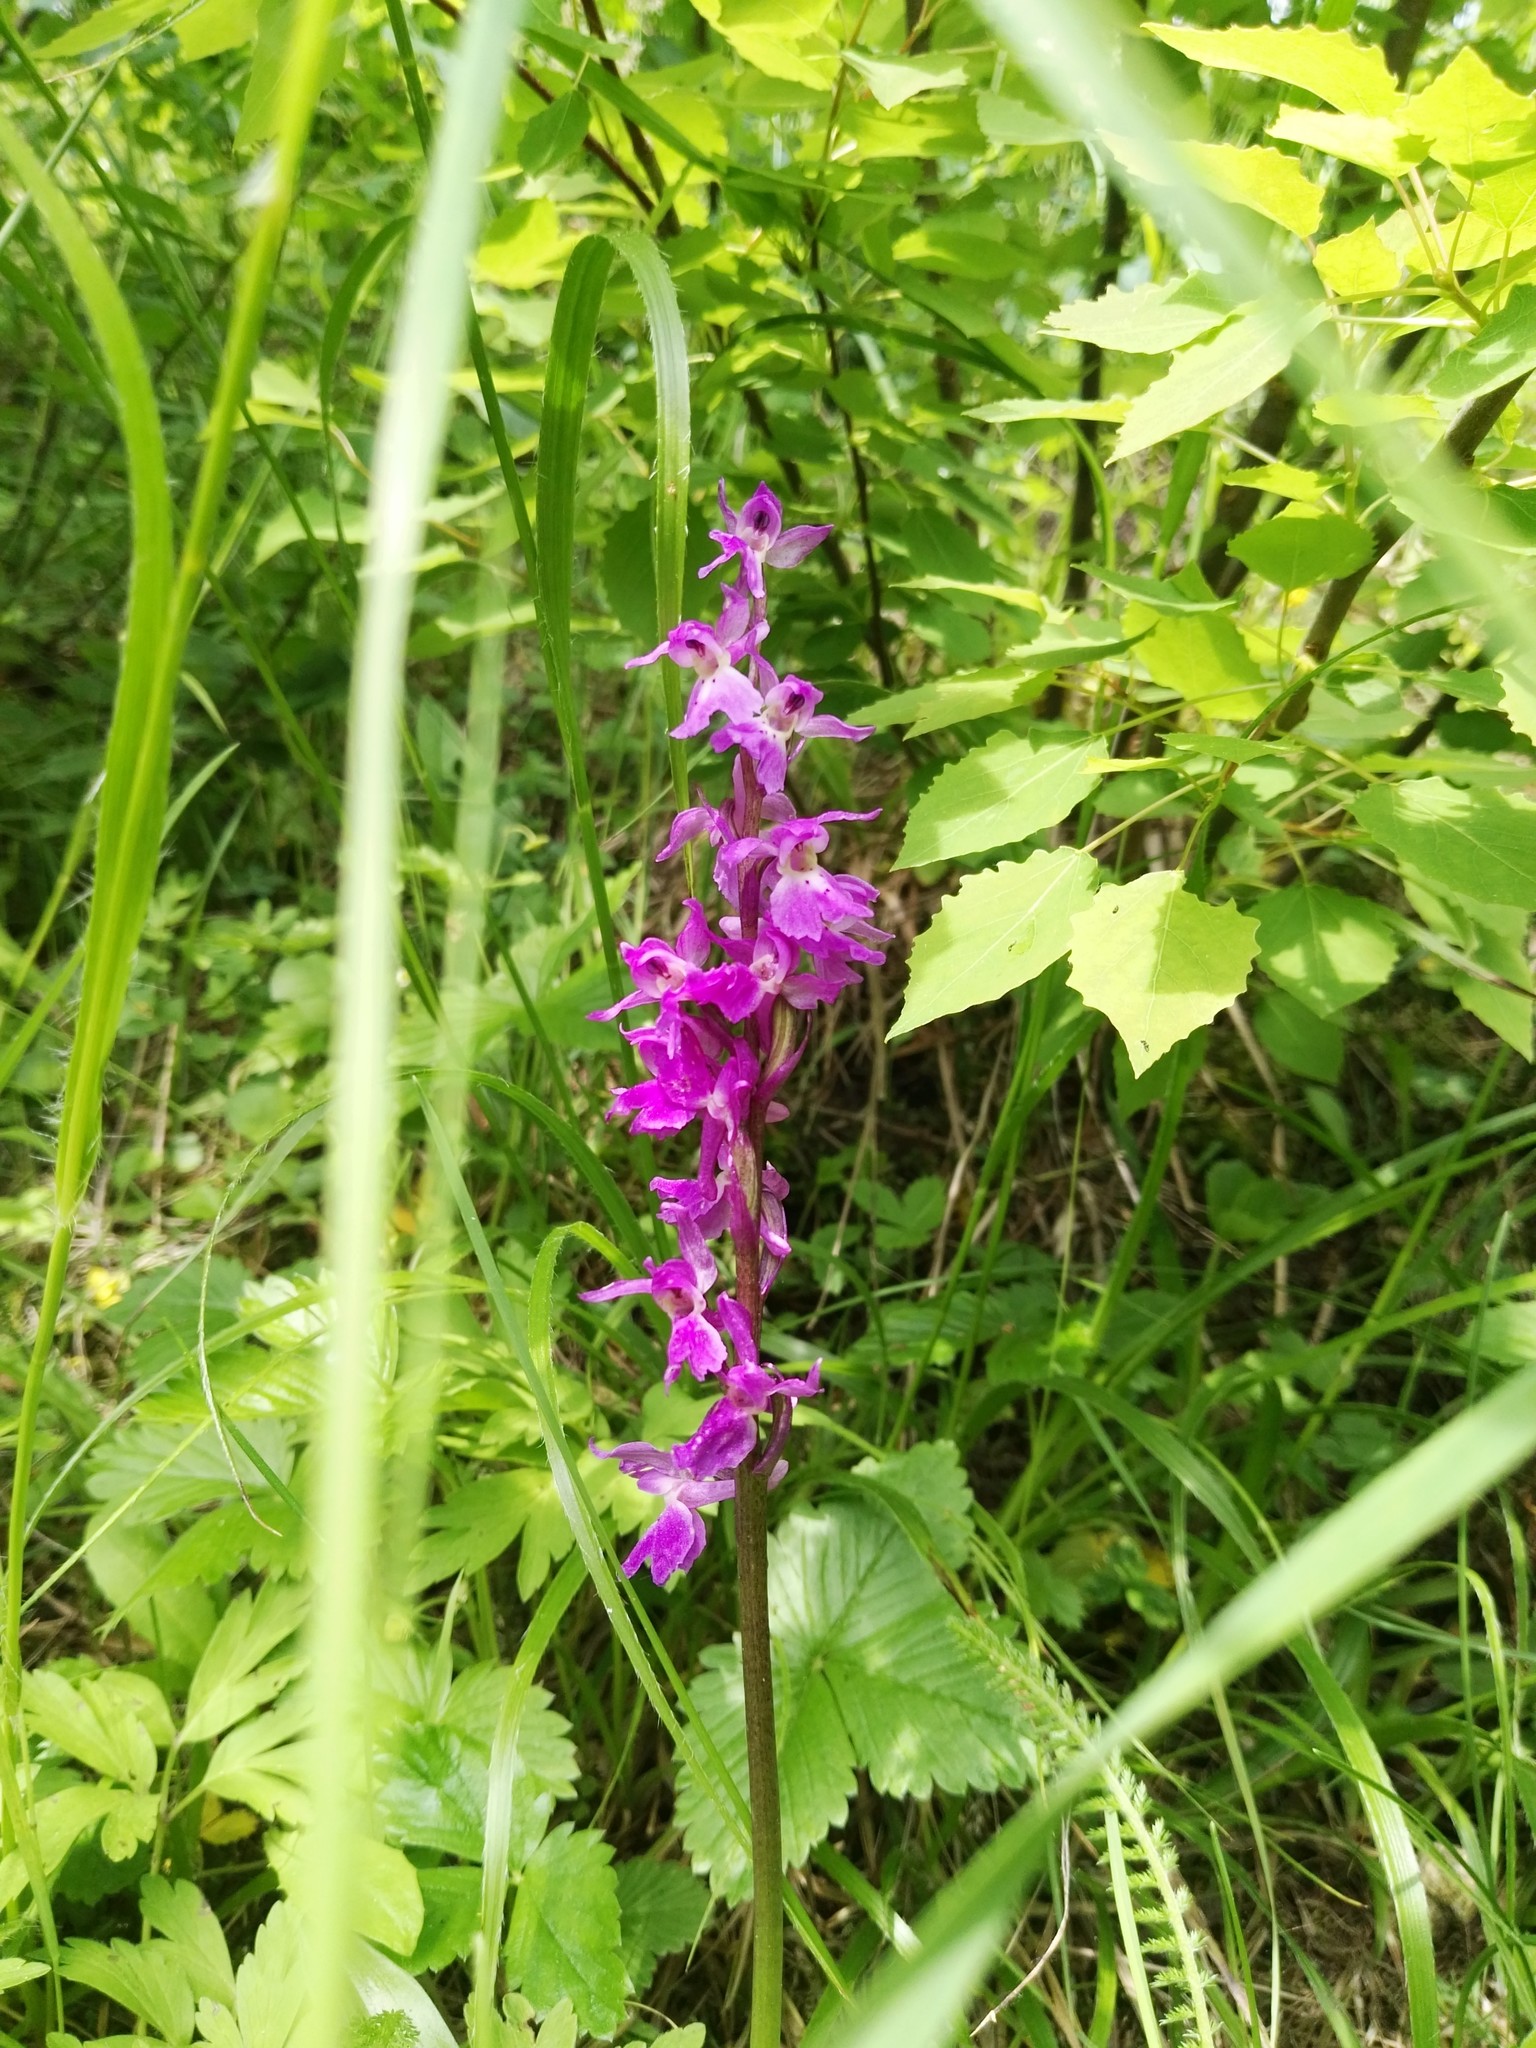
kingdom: Plantae
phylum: Tracheophyta
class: Liliopsida
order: Asparagales
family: Orchidaceae
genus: Orchis
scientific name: Orchis mascula
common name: Early-purple orchid
